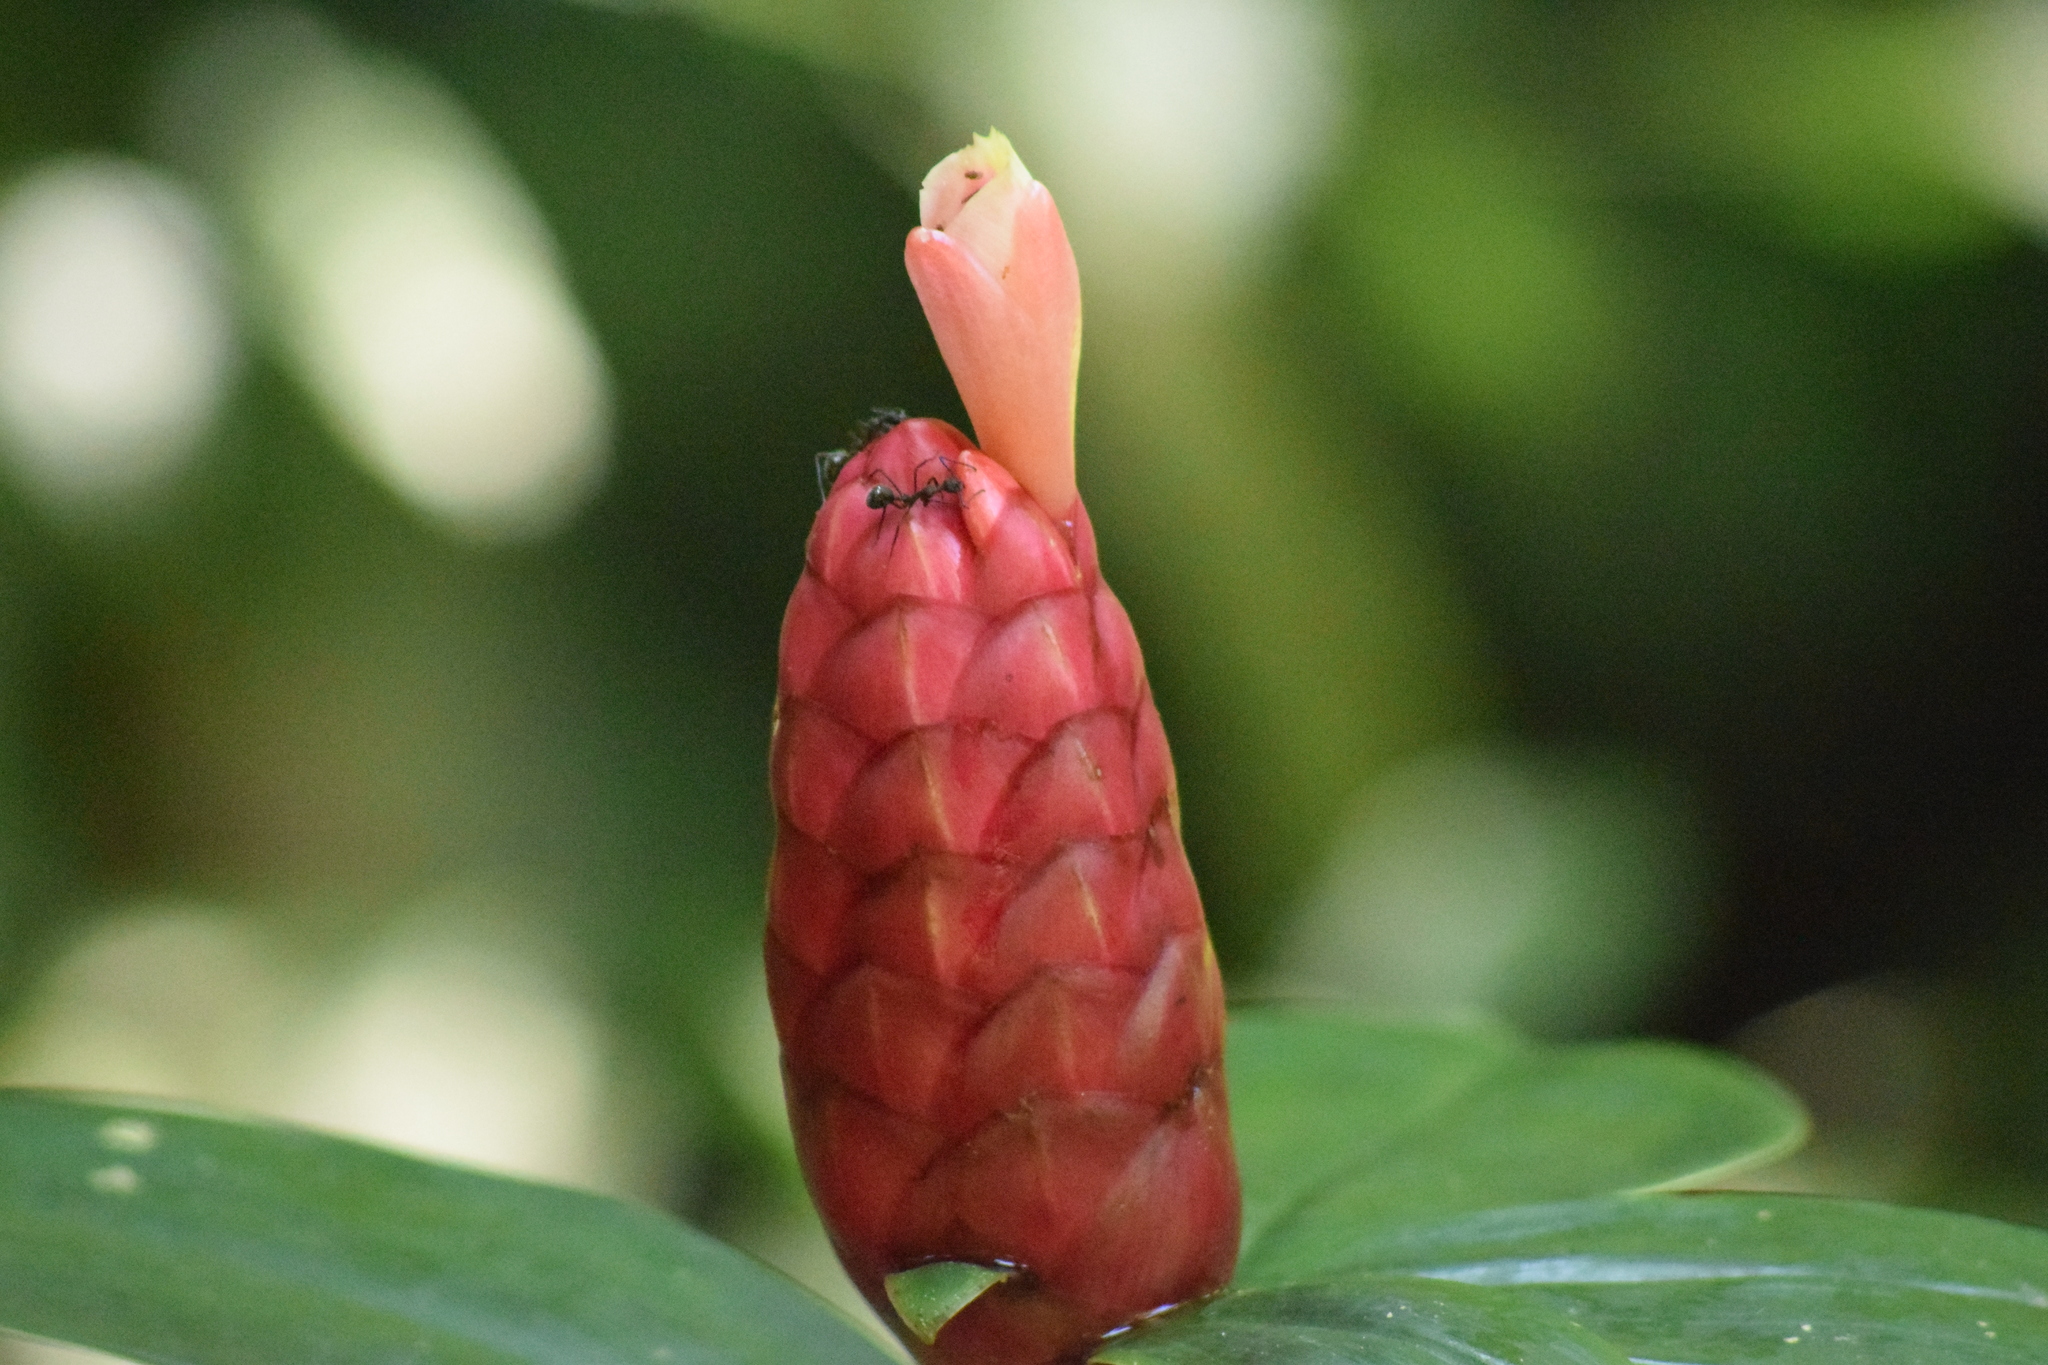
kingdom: Plantae
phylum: Tracheophyta
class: Liliopsida
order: Zingiberales
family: Costaceae
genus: Costus
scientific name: Costus spiralis
